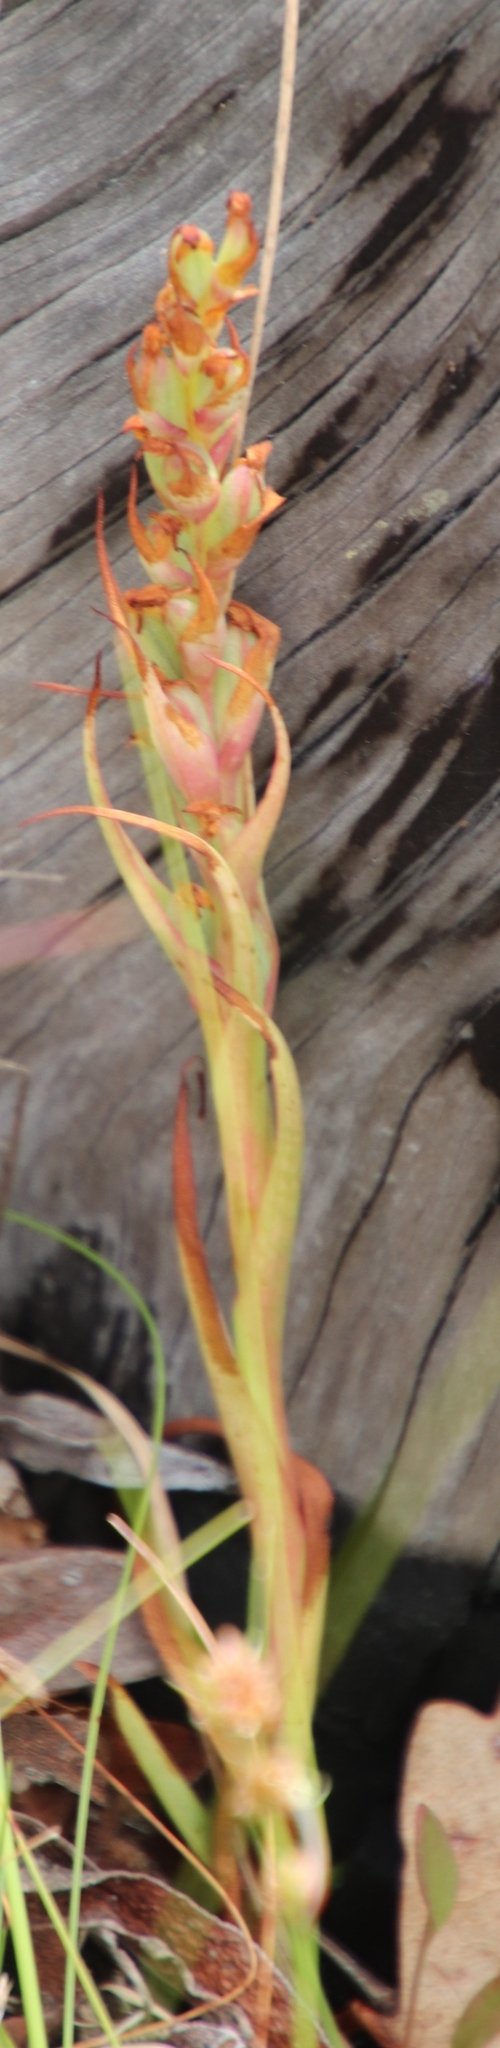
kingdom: Plantae
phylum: Tracheophyta
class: Liliopsida
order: Asparagales
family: Orchidaceae
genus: Disa
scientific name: Disa bracteata
